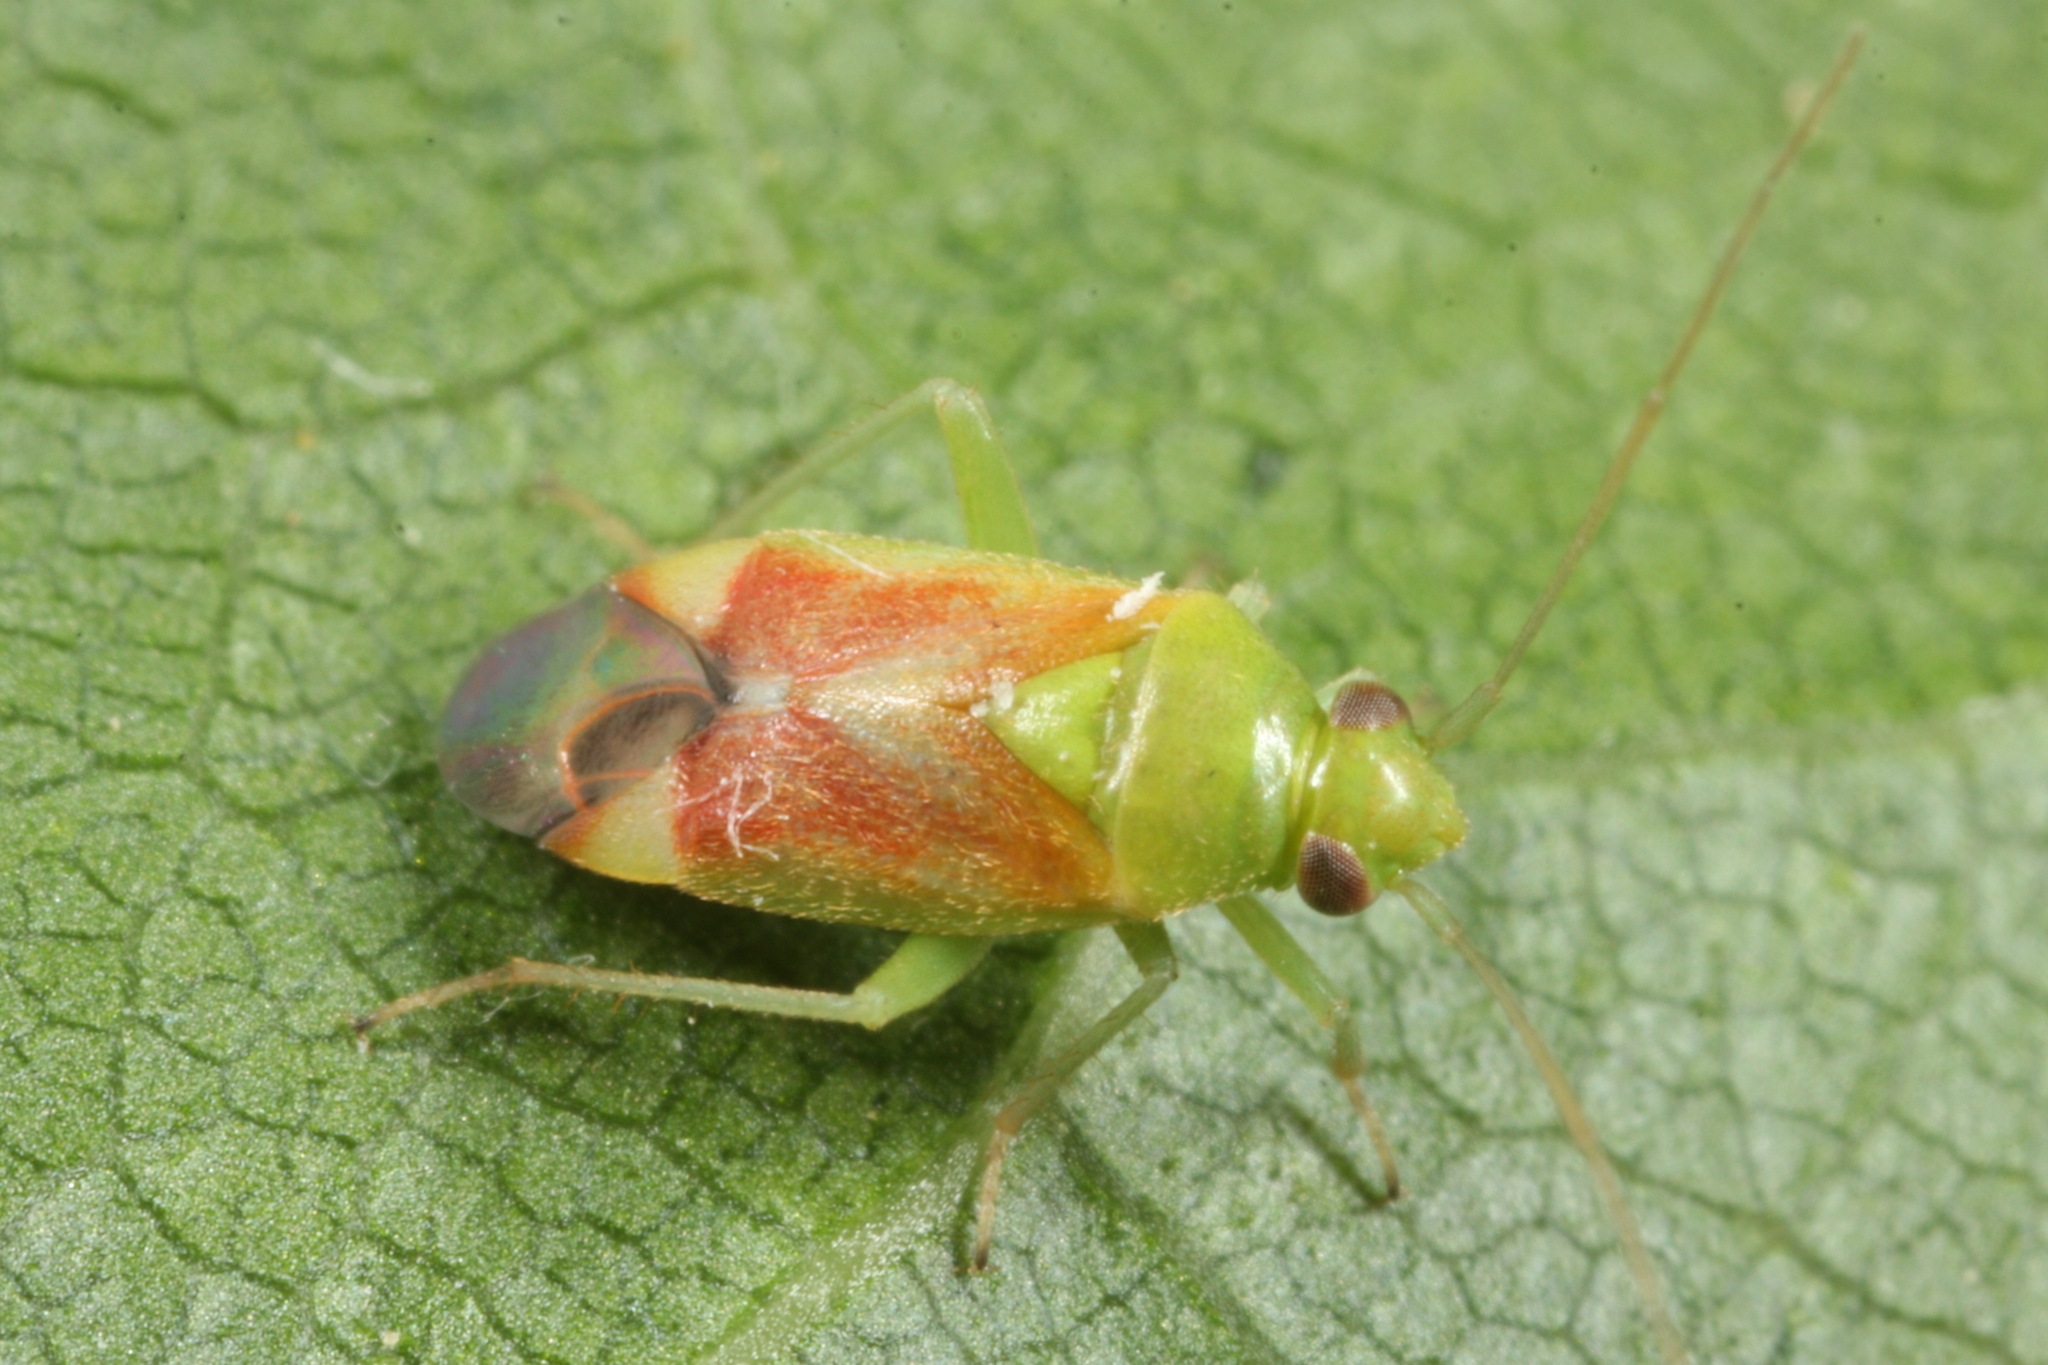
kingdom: Animalia
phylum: Arthropoda
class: Insecta
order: Hemiptera
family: Miridae
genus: Dichrooscytus
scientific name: Dichrooscytus gustavi
